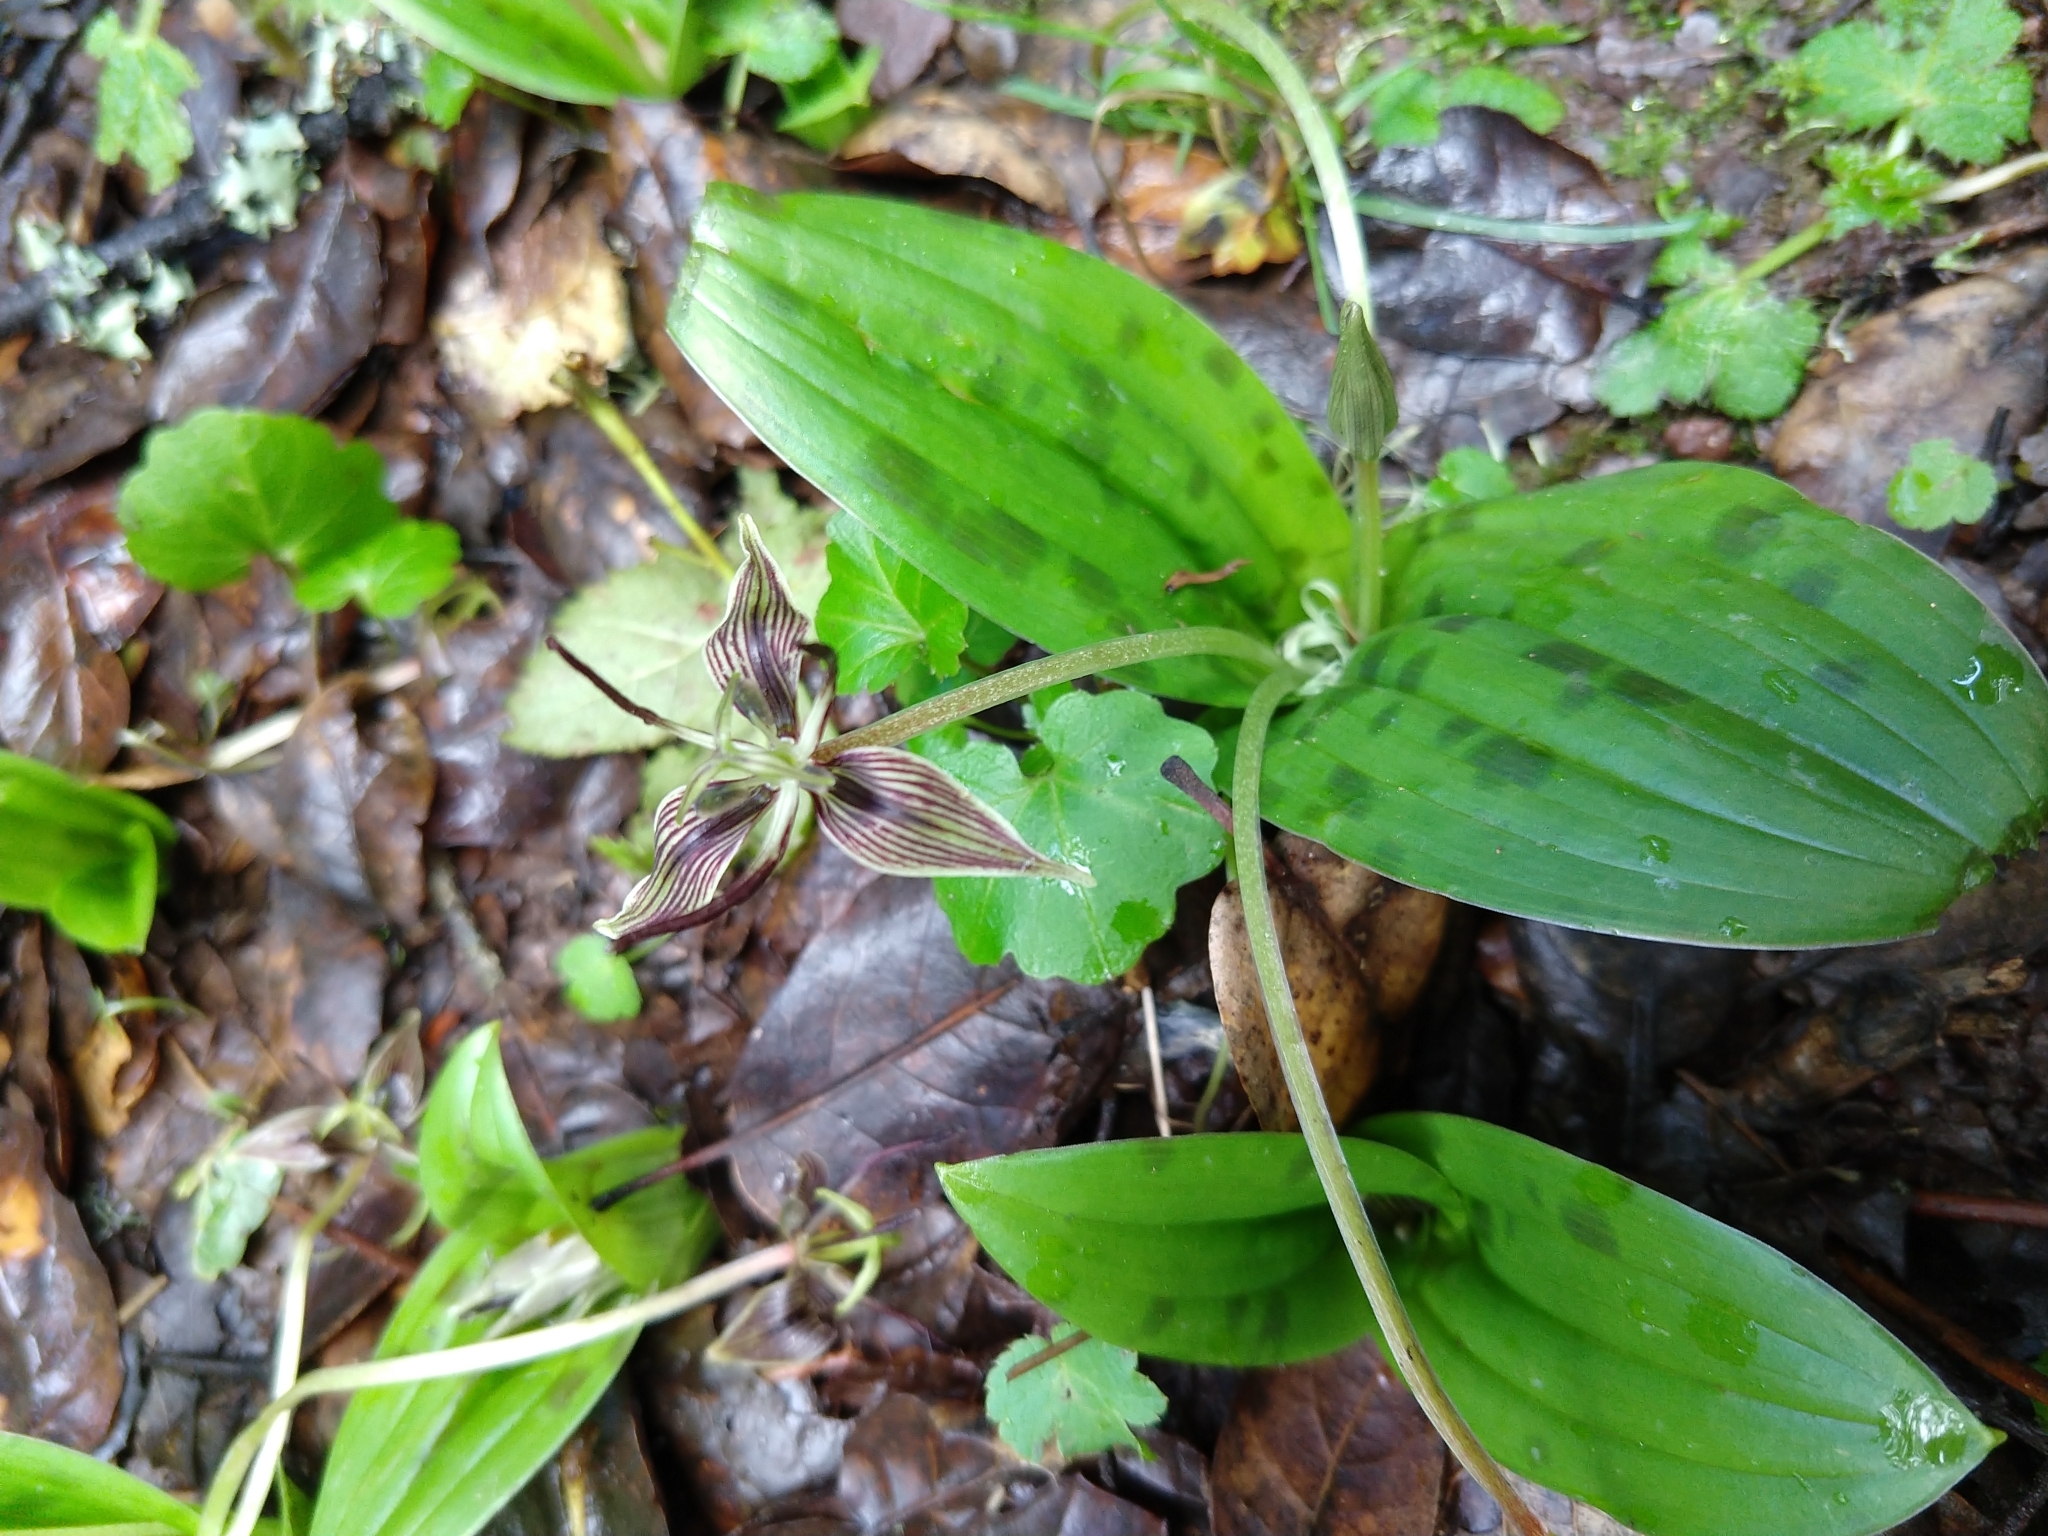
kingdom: Plantae
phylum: Tracheophyta
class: Liliopsida
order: Liliales
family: Liliaceae
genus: Scoliopus
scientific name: Scoliopus bigelovii
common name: Foetid adder's-tongue
